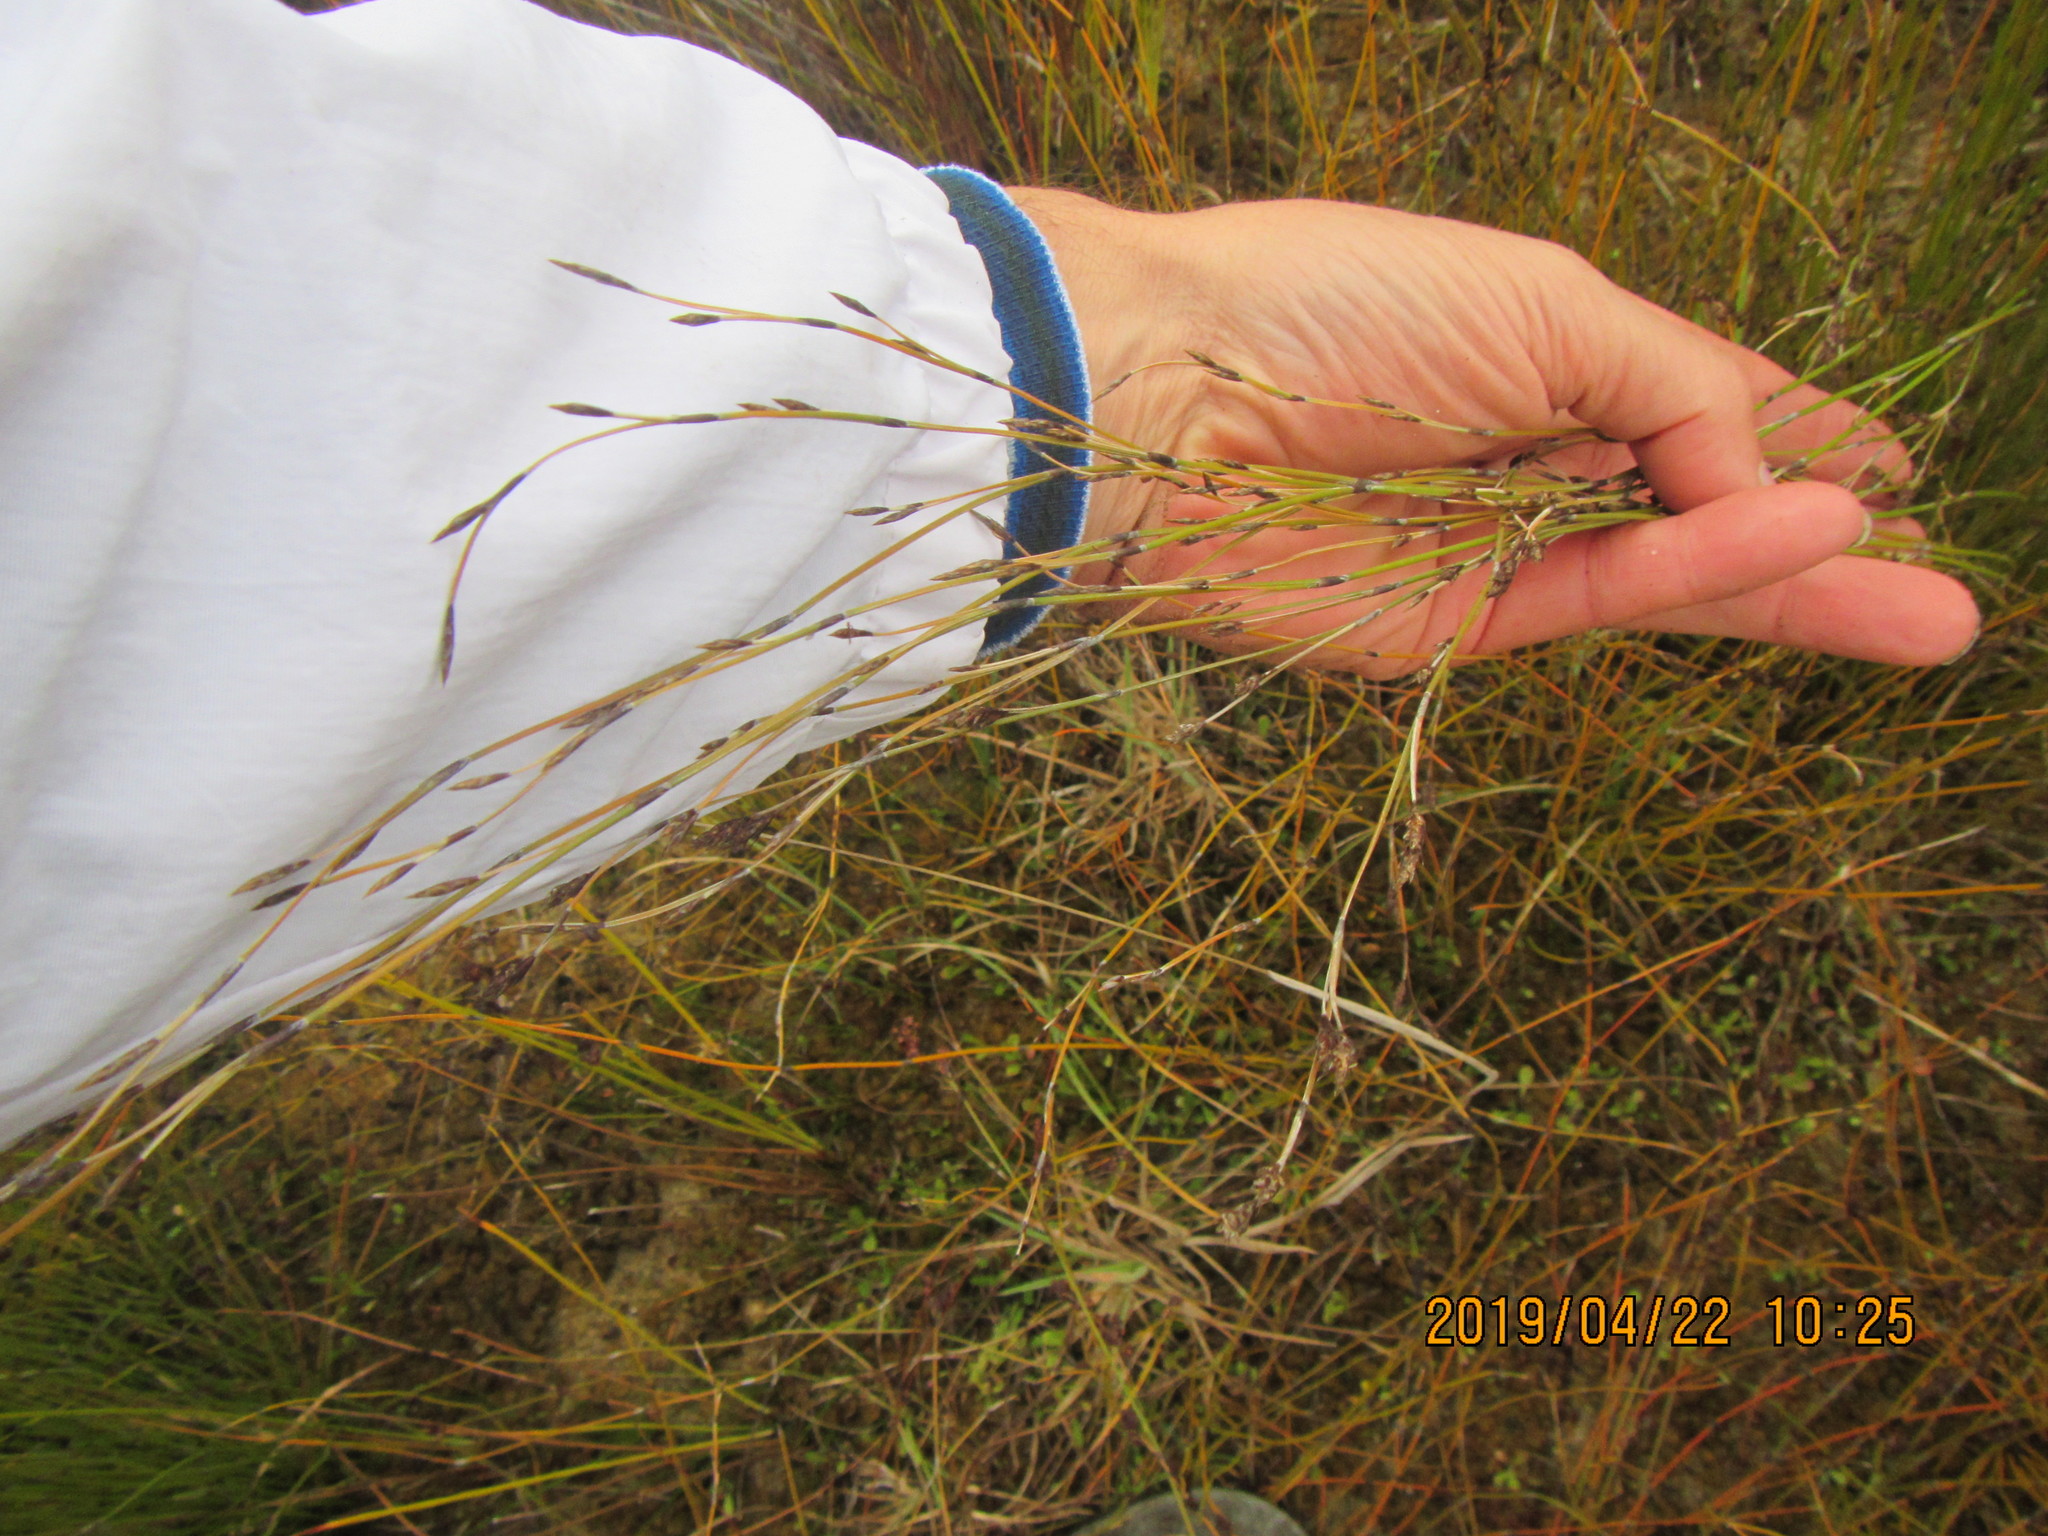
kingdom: Plantae
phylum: Tracheophyta
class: Liliopsida
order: Poales
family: Restionaceae
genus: Apodasmia
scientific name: Apodasmia similis
